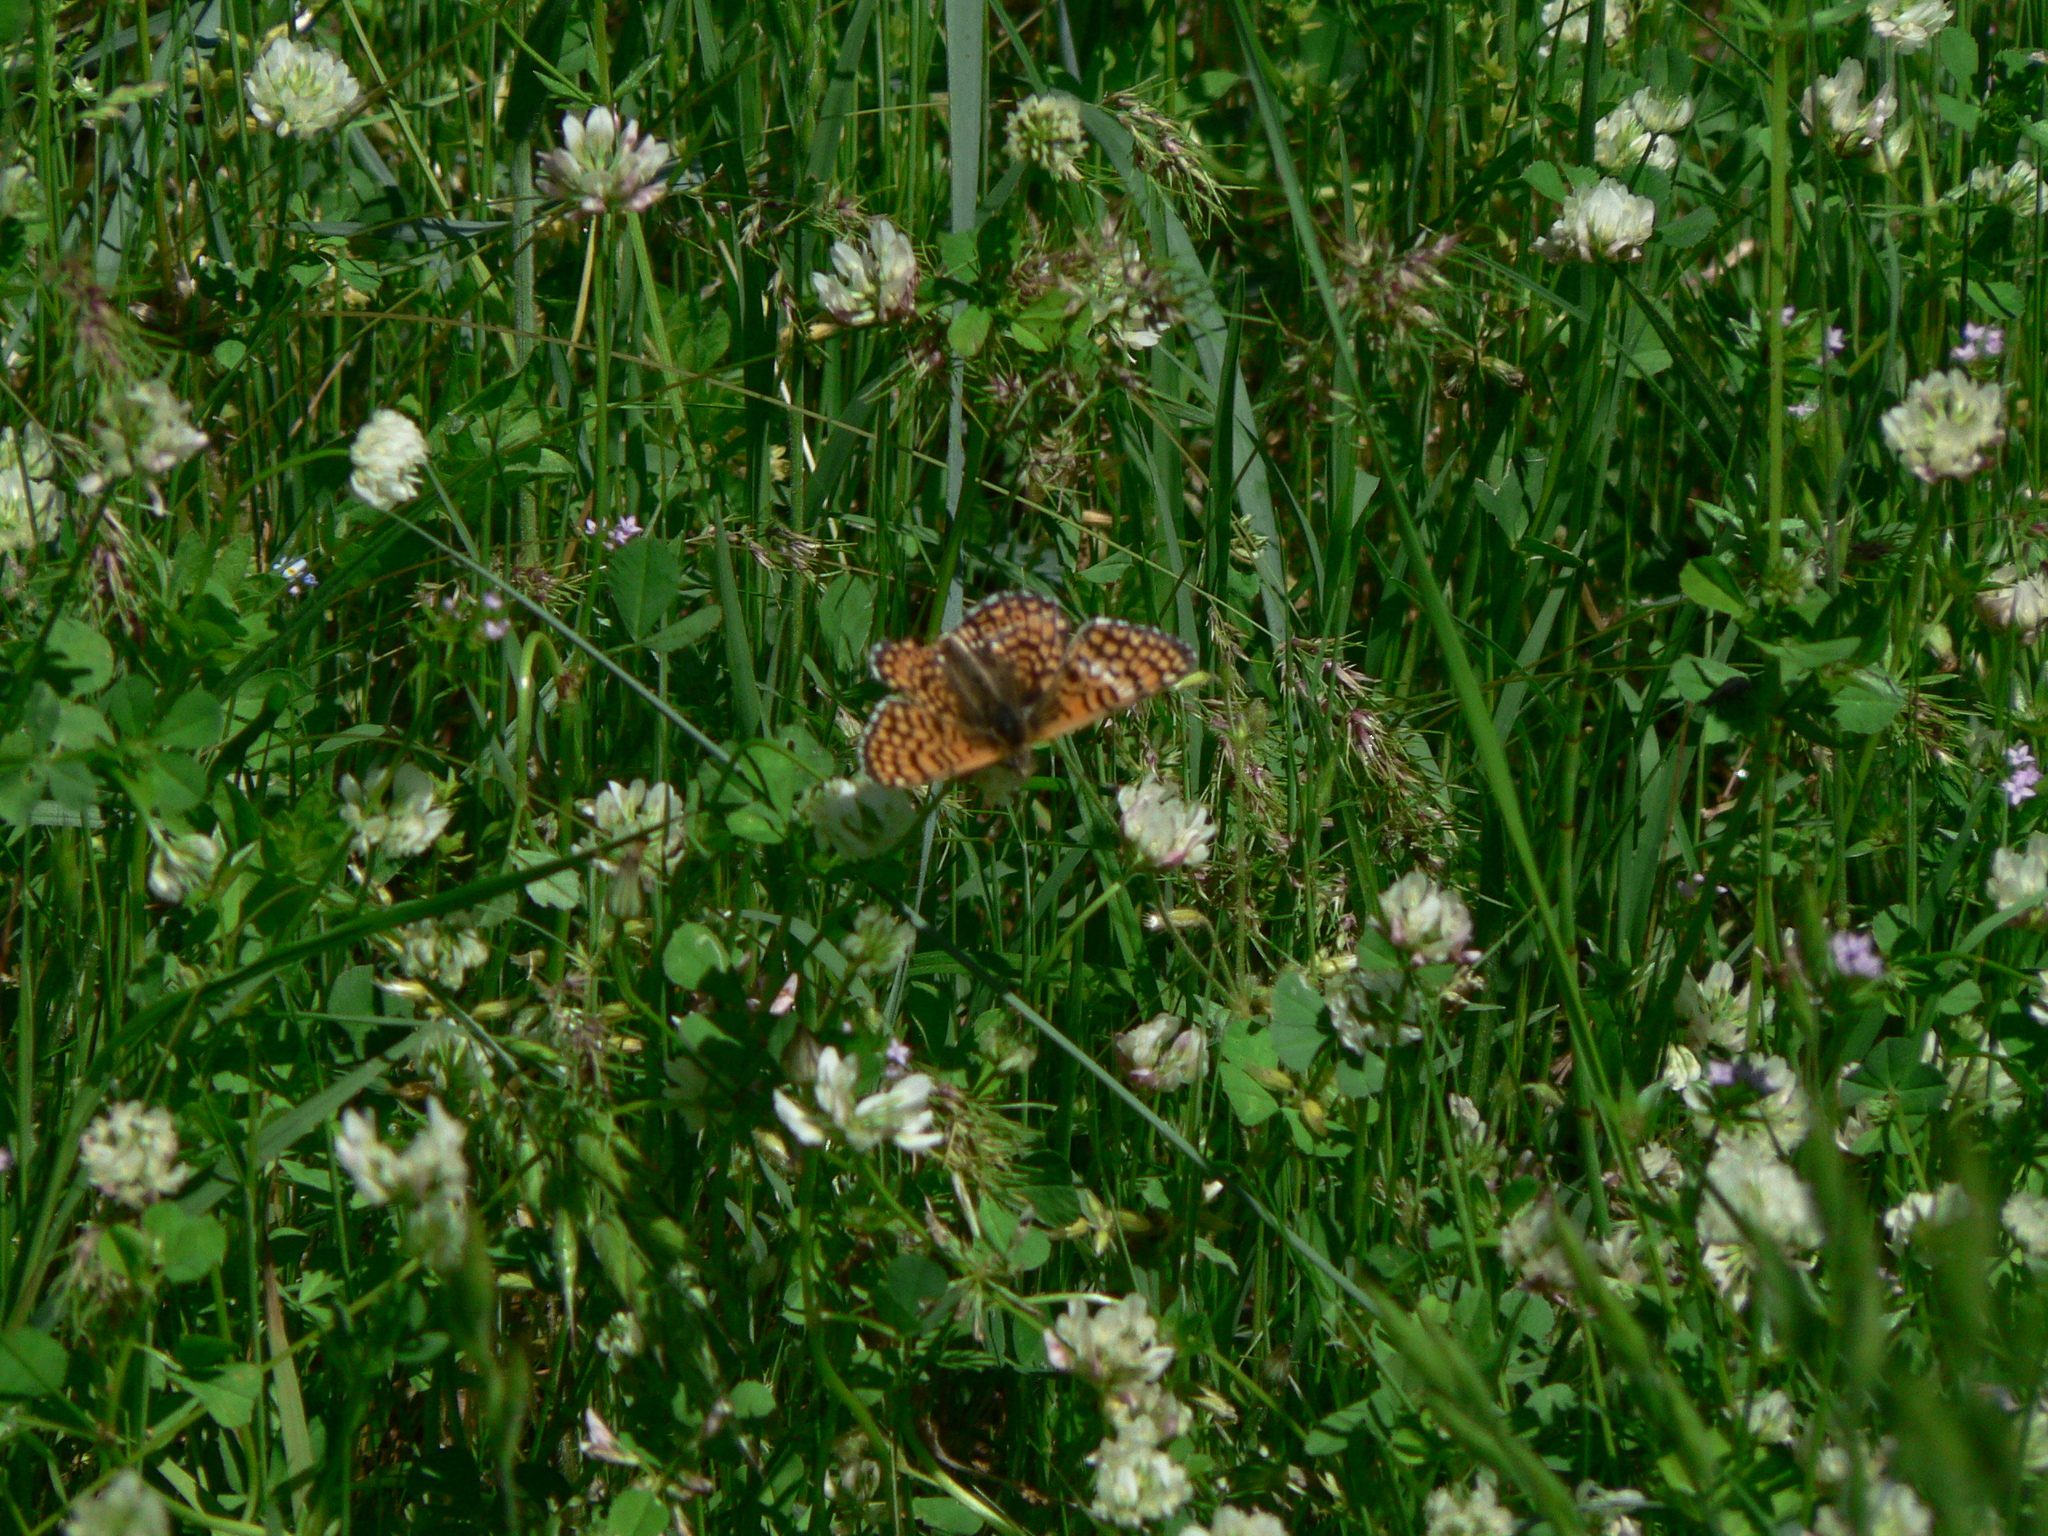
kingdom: Animalia
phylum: Arthropoda
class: Insecta
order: Lepidoptera
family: Nymphalidae
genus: Melitaea
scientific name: Melitaea cinxia
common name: Glanville fritillary
